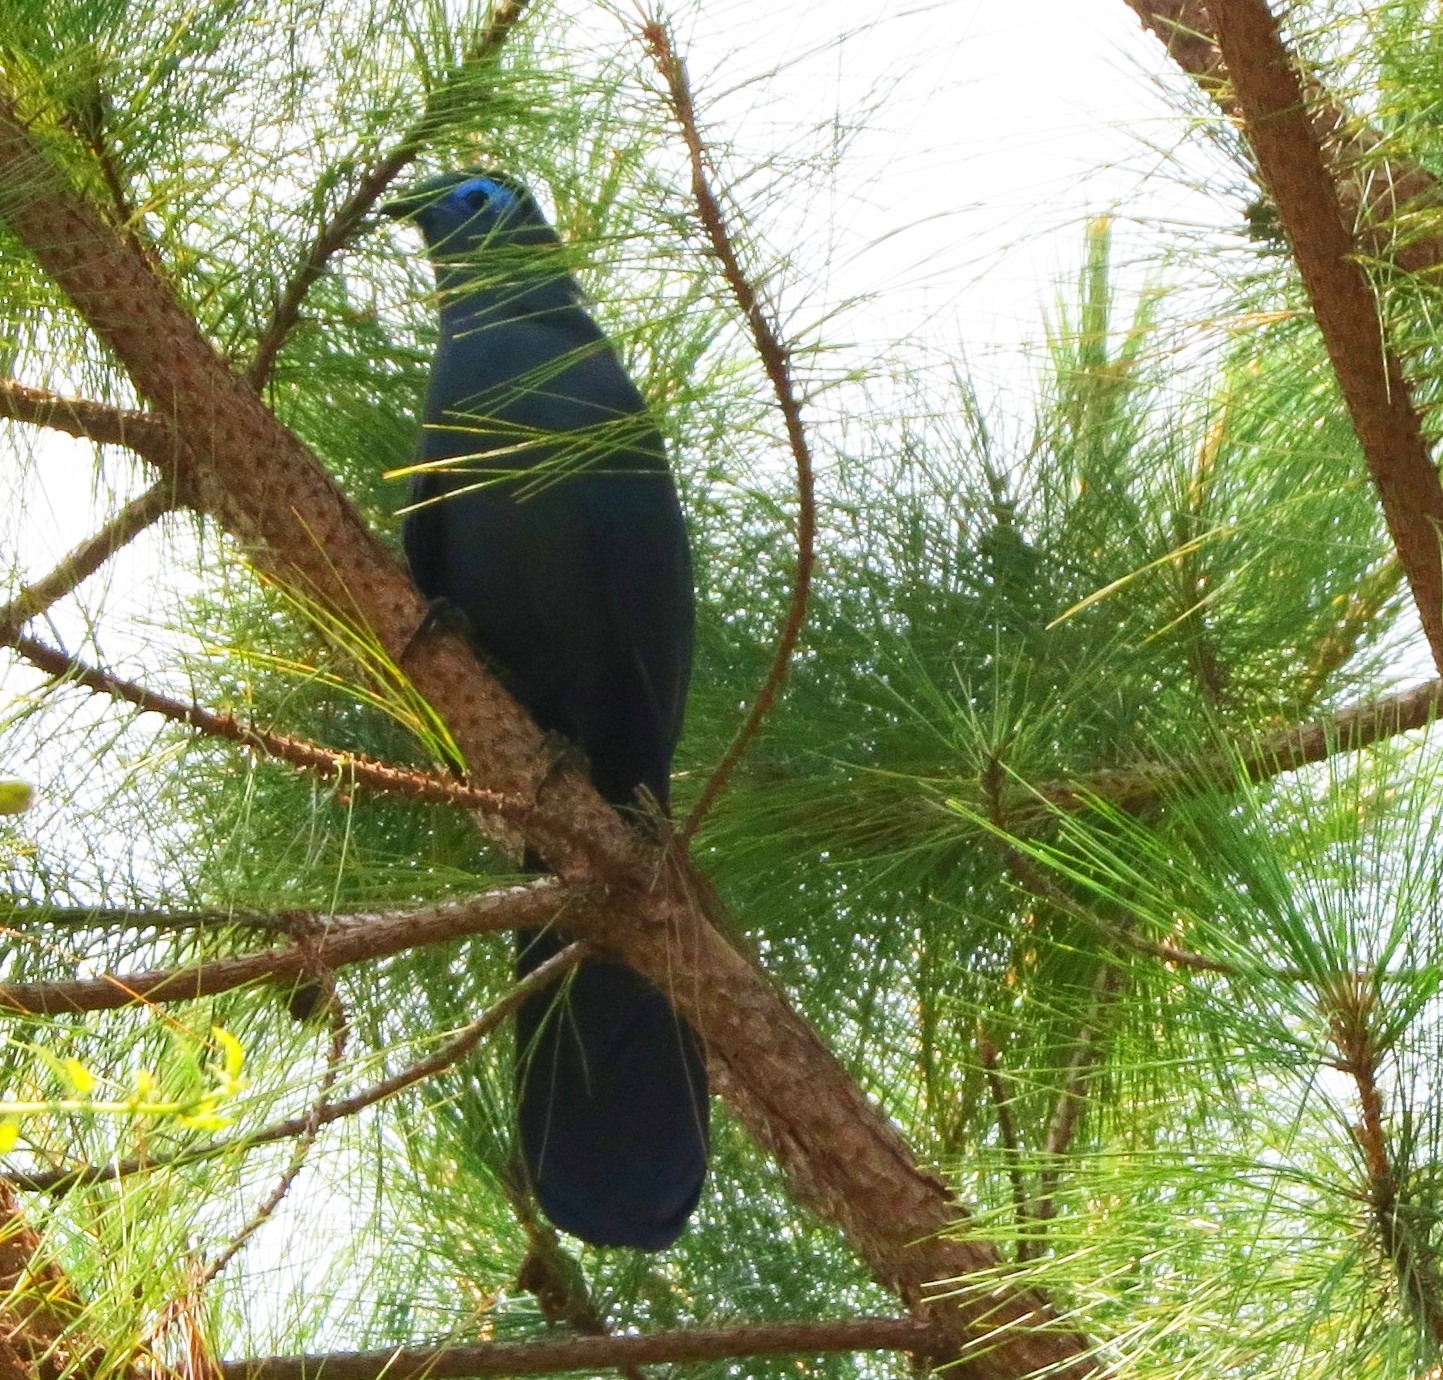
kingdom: Animalia
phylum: Chordata
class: Aves
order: Cuculiformes
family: Cuculidae
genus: Coua
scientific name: Coua caerulea
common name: Blue coua
